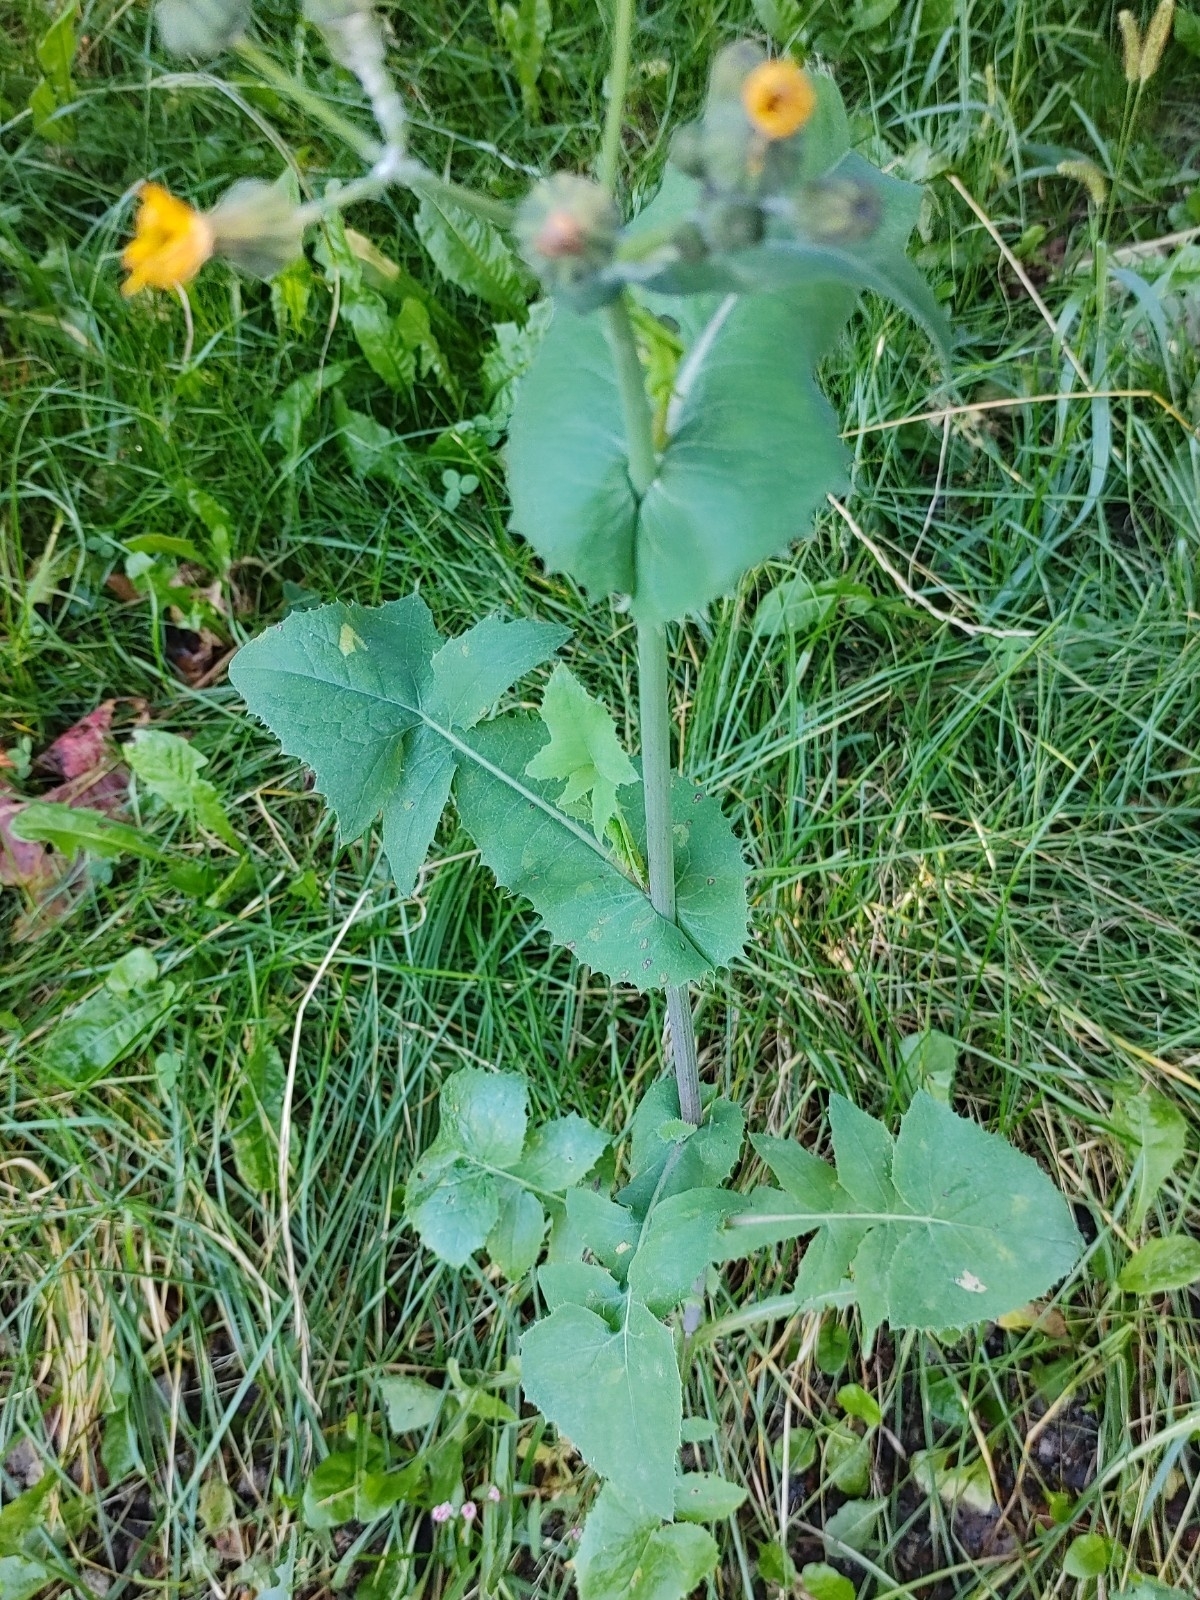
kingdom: Plantae
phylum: Tracheophyta
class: Magnoliopsida
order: Asterales
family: Asteraceae
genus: Sonchus
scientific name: Sonchus oleraceus
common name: Common sowthistle
